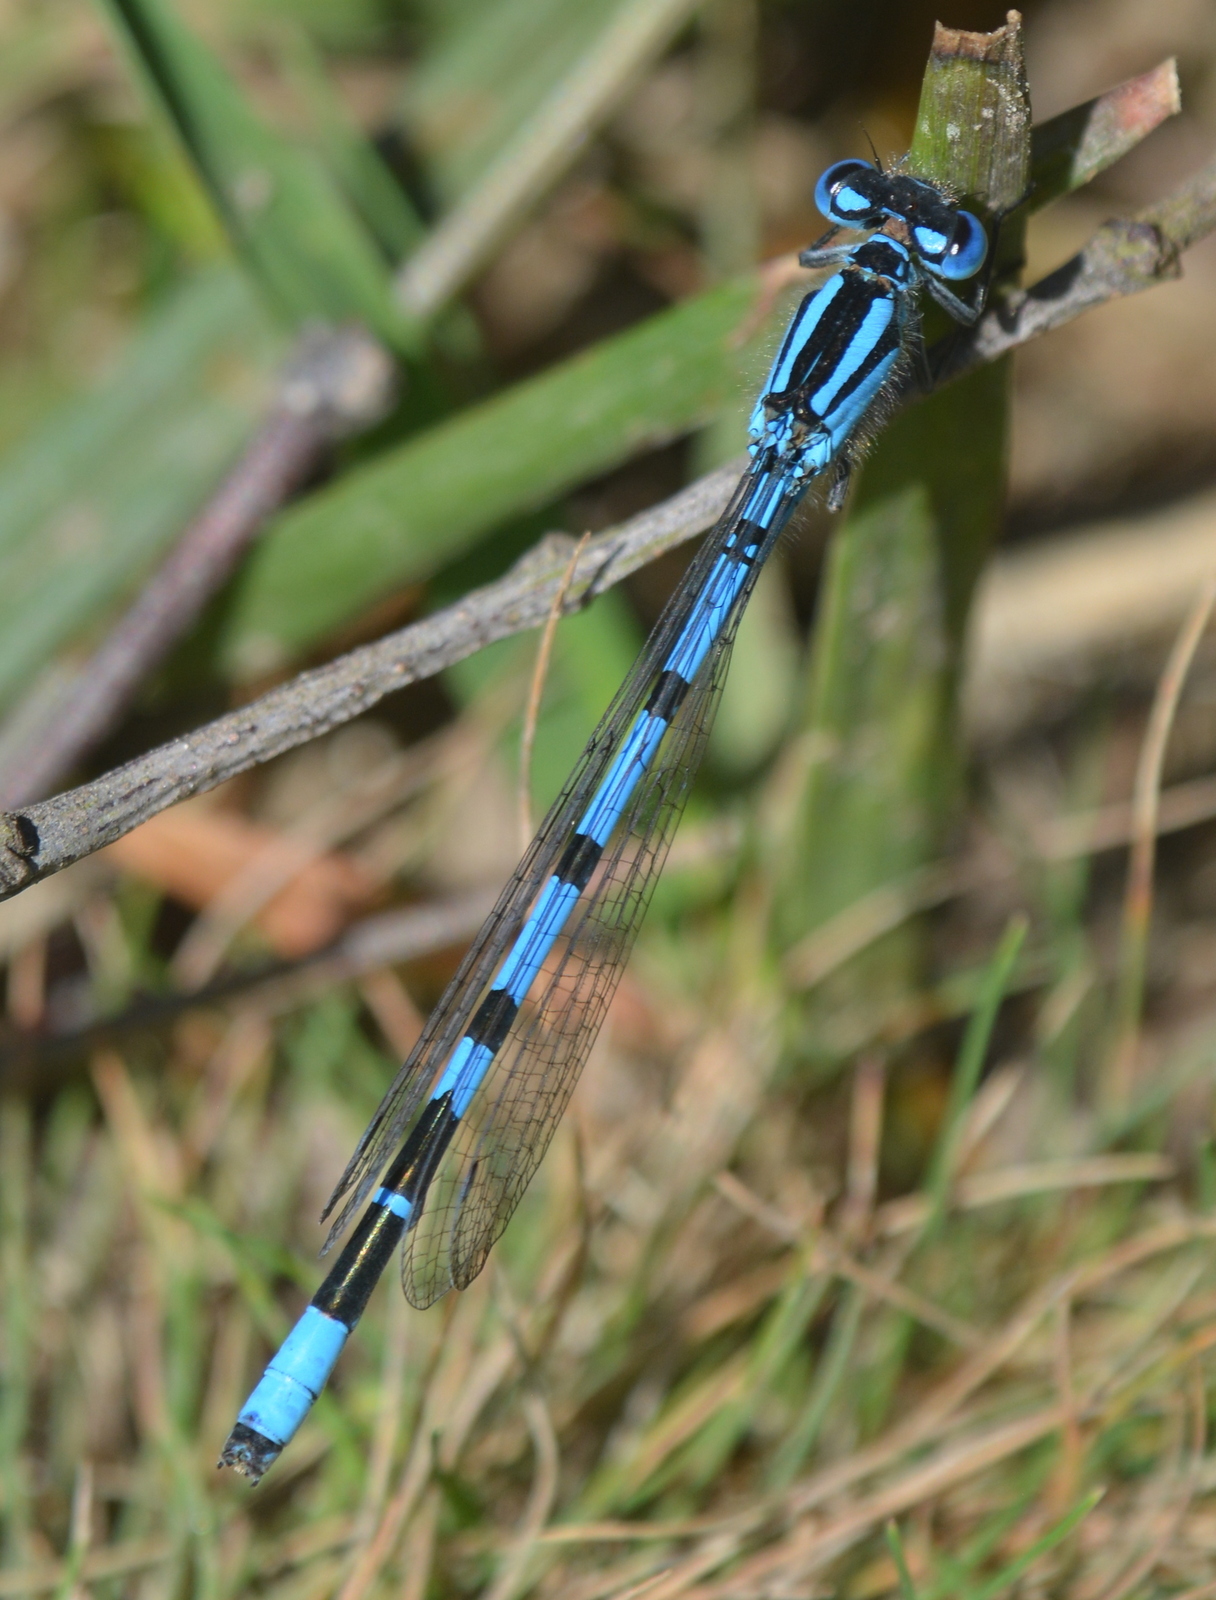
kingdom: Animalia
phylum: Arthropoda
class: Insecta
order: Odonata
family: Coenagrionidae
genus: Enallagma
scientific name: Enallagma cyathigerum
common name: Common blue damselfly
